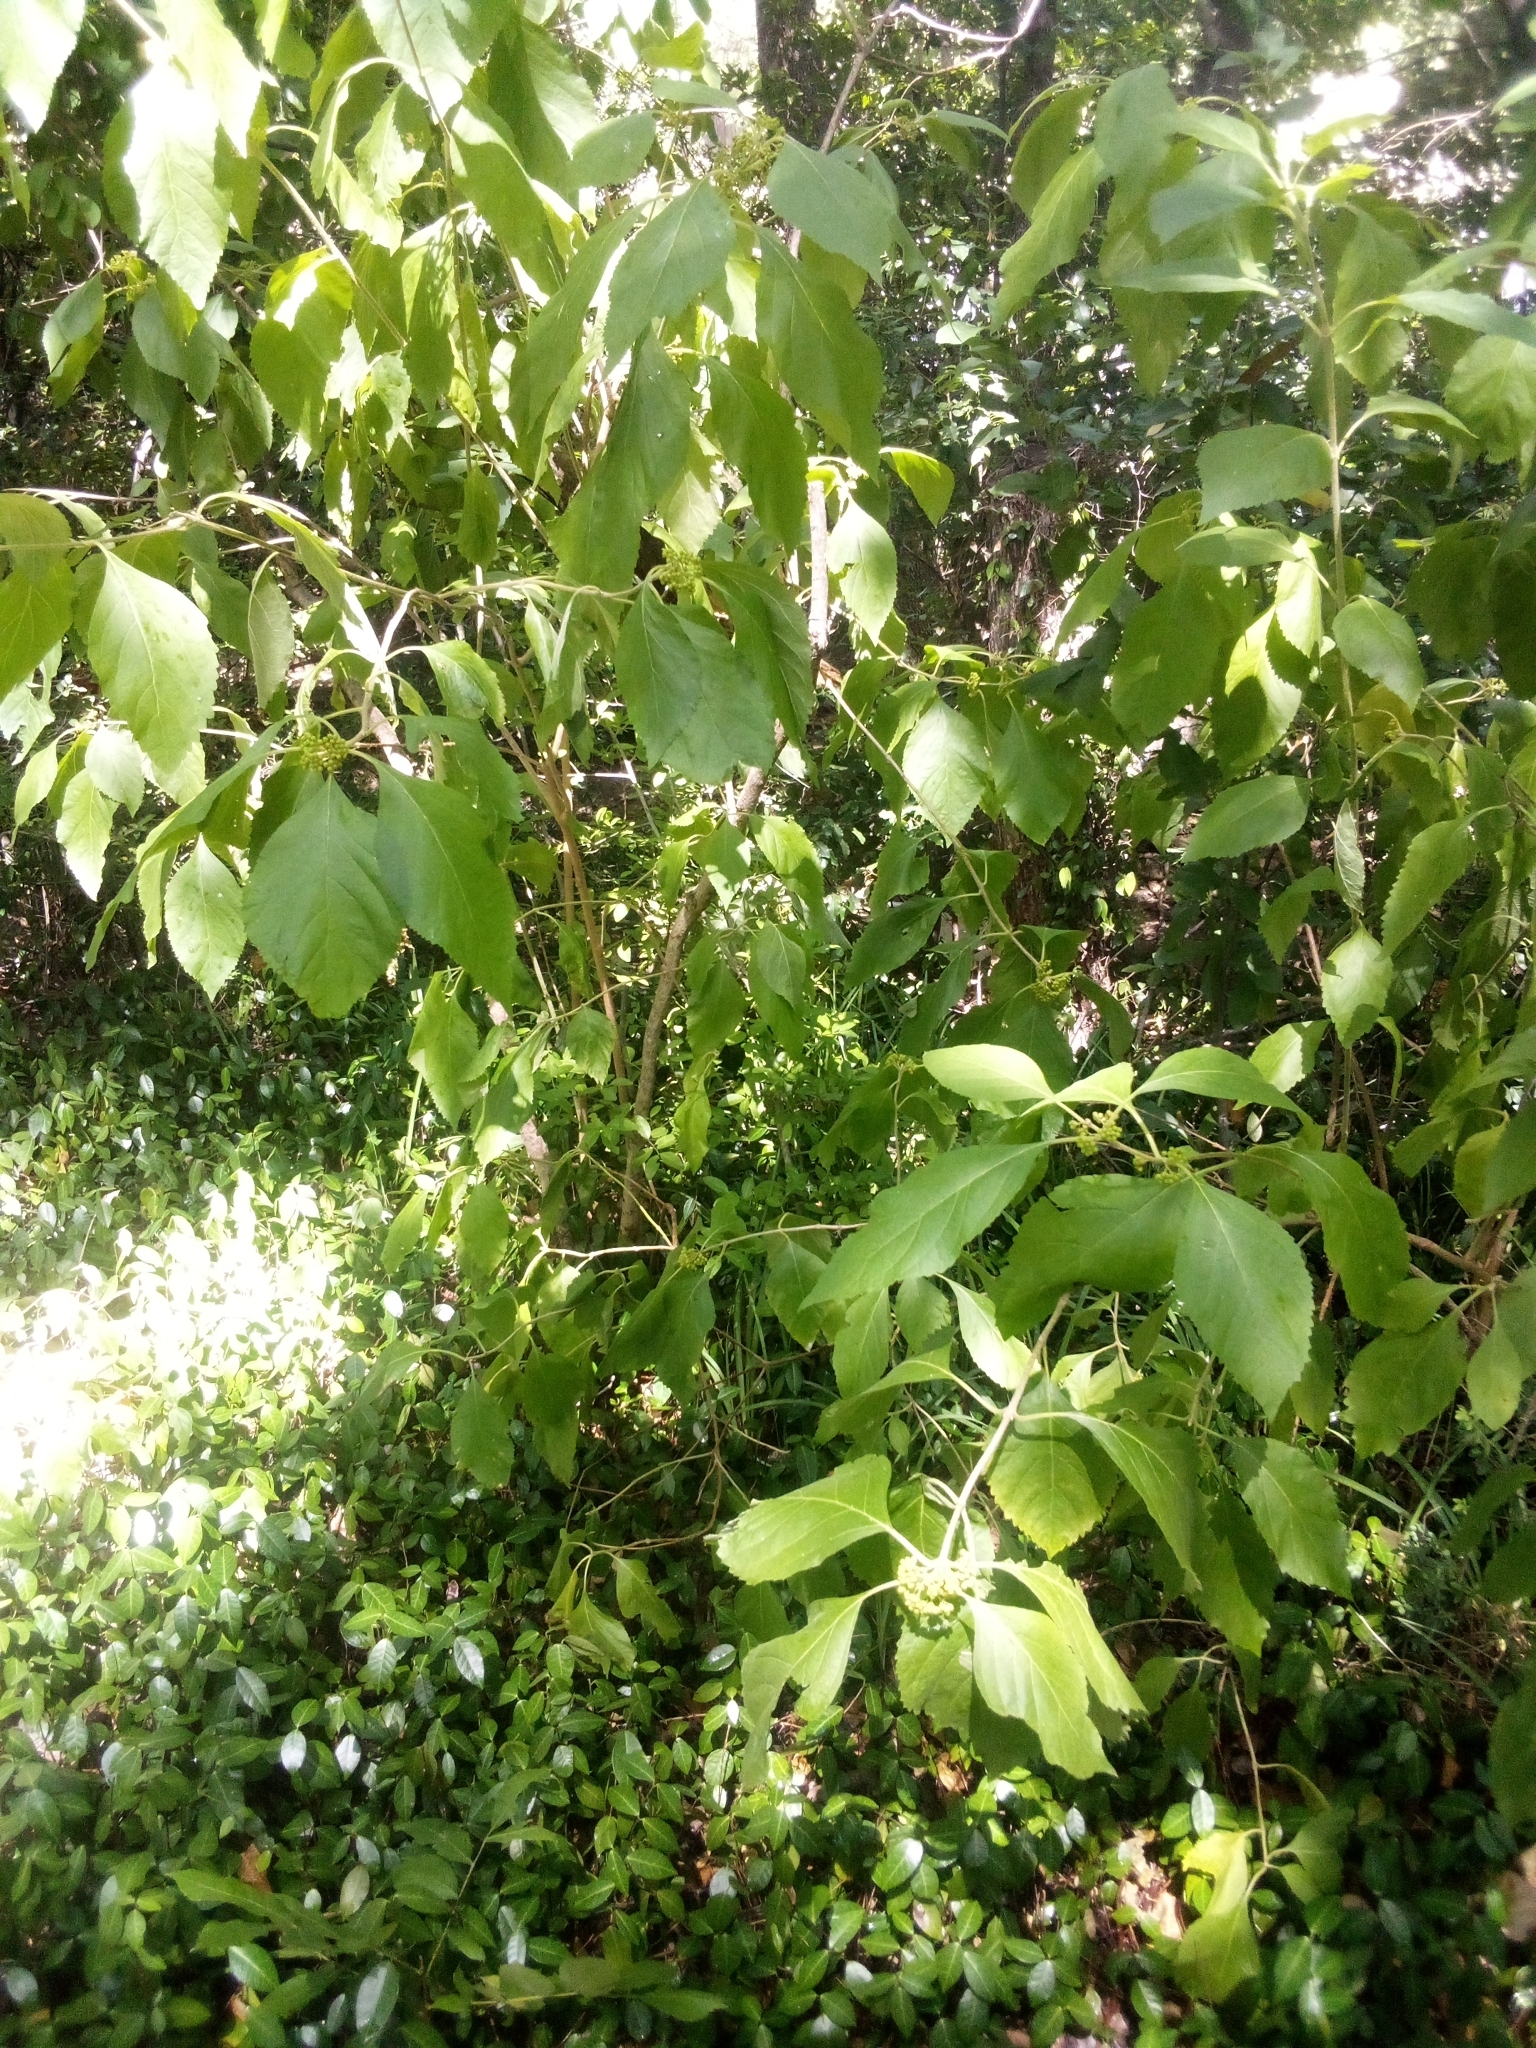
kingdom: Plantae
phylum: Tracheophyta
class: Magnoliopsida
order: Lamiales
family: Lamiaceae
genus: Callicarpa
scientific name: Callicarpa americana
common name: American beautyberry
